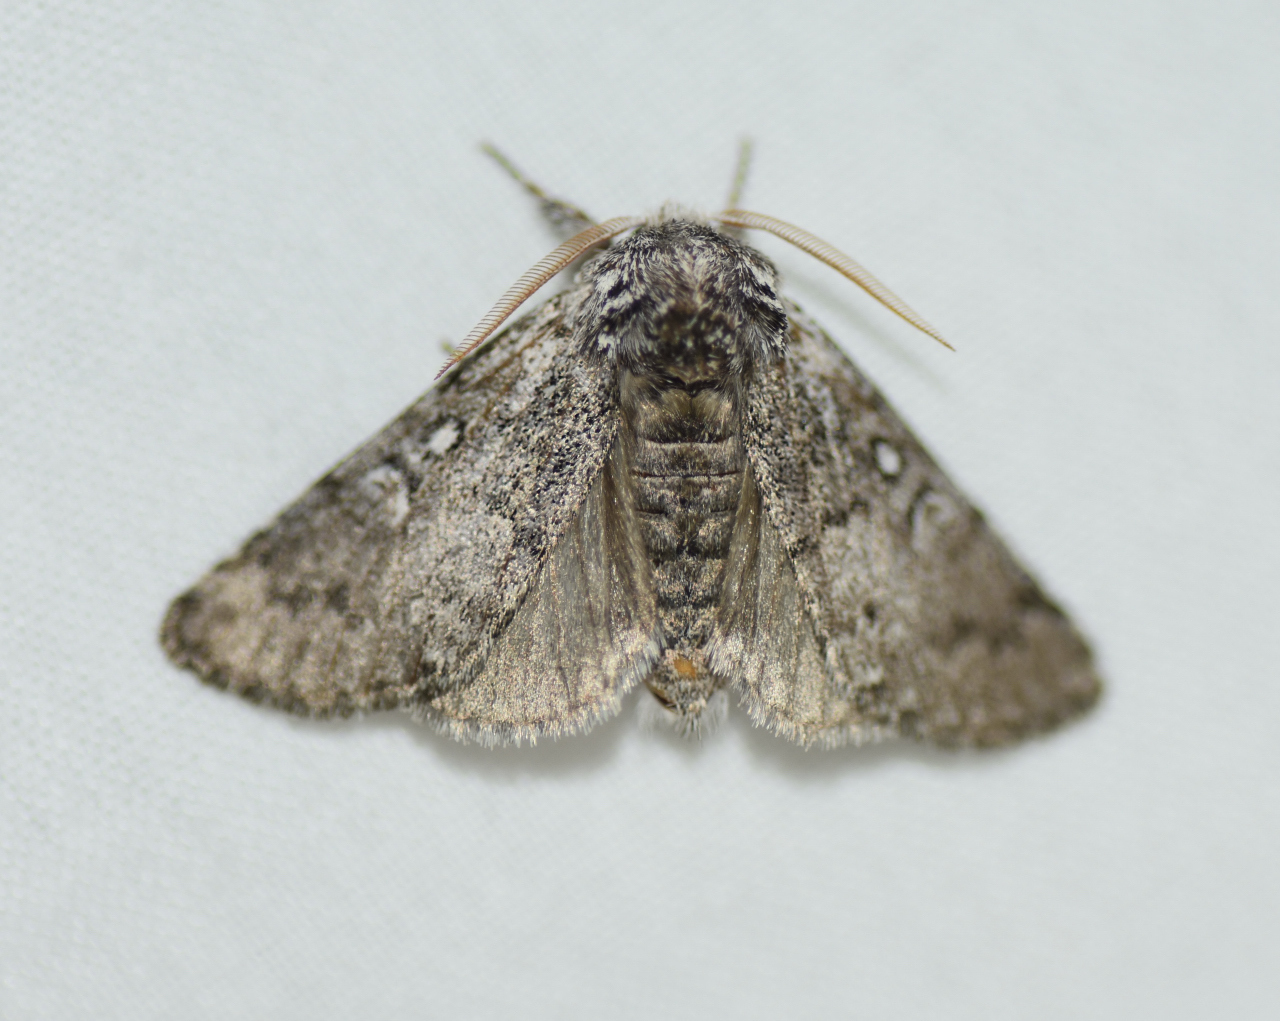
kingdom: Animalia
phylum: Arthropoda
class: Insecta
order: Lepidoptera
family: Noctuidae
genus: Colocasia
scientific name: Colocasia propinquilinea
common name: Close-banded demas
